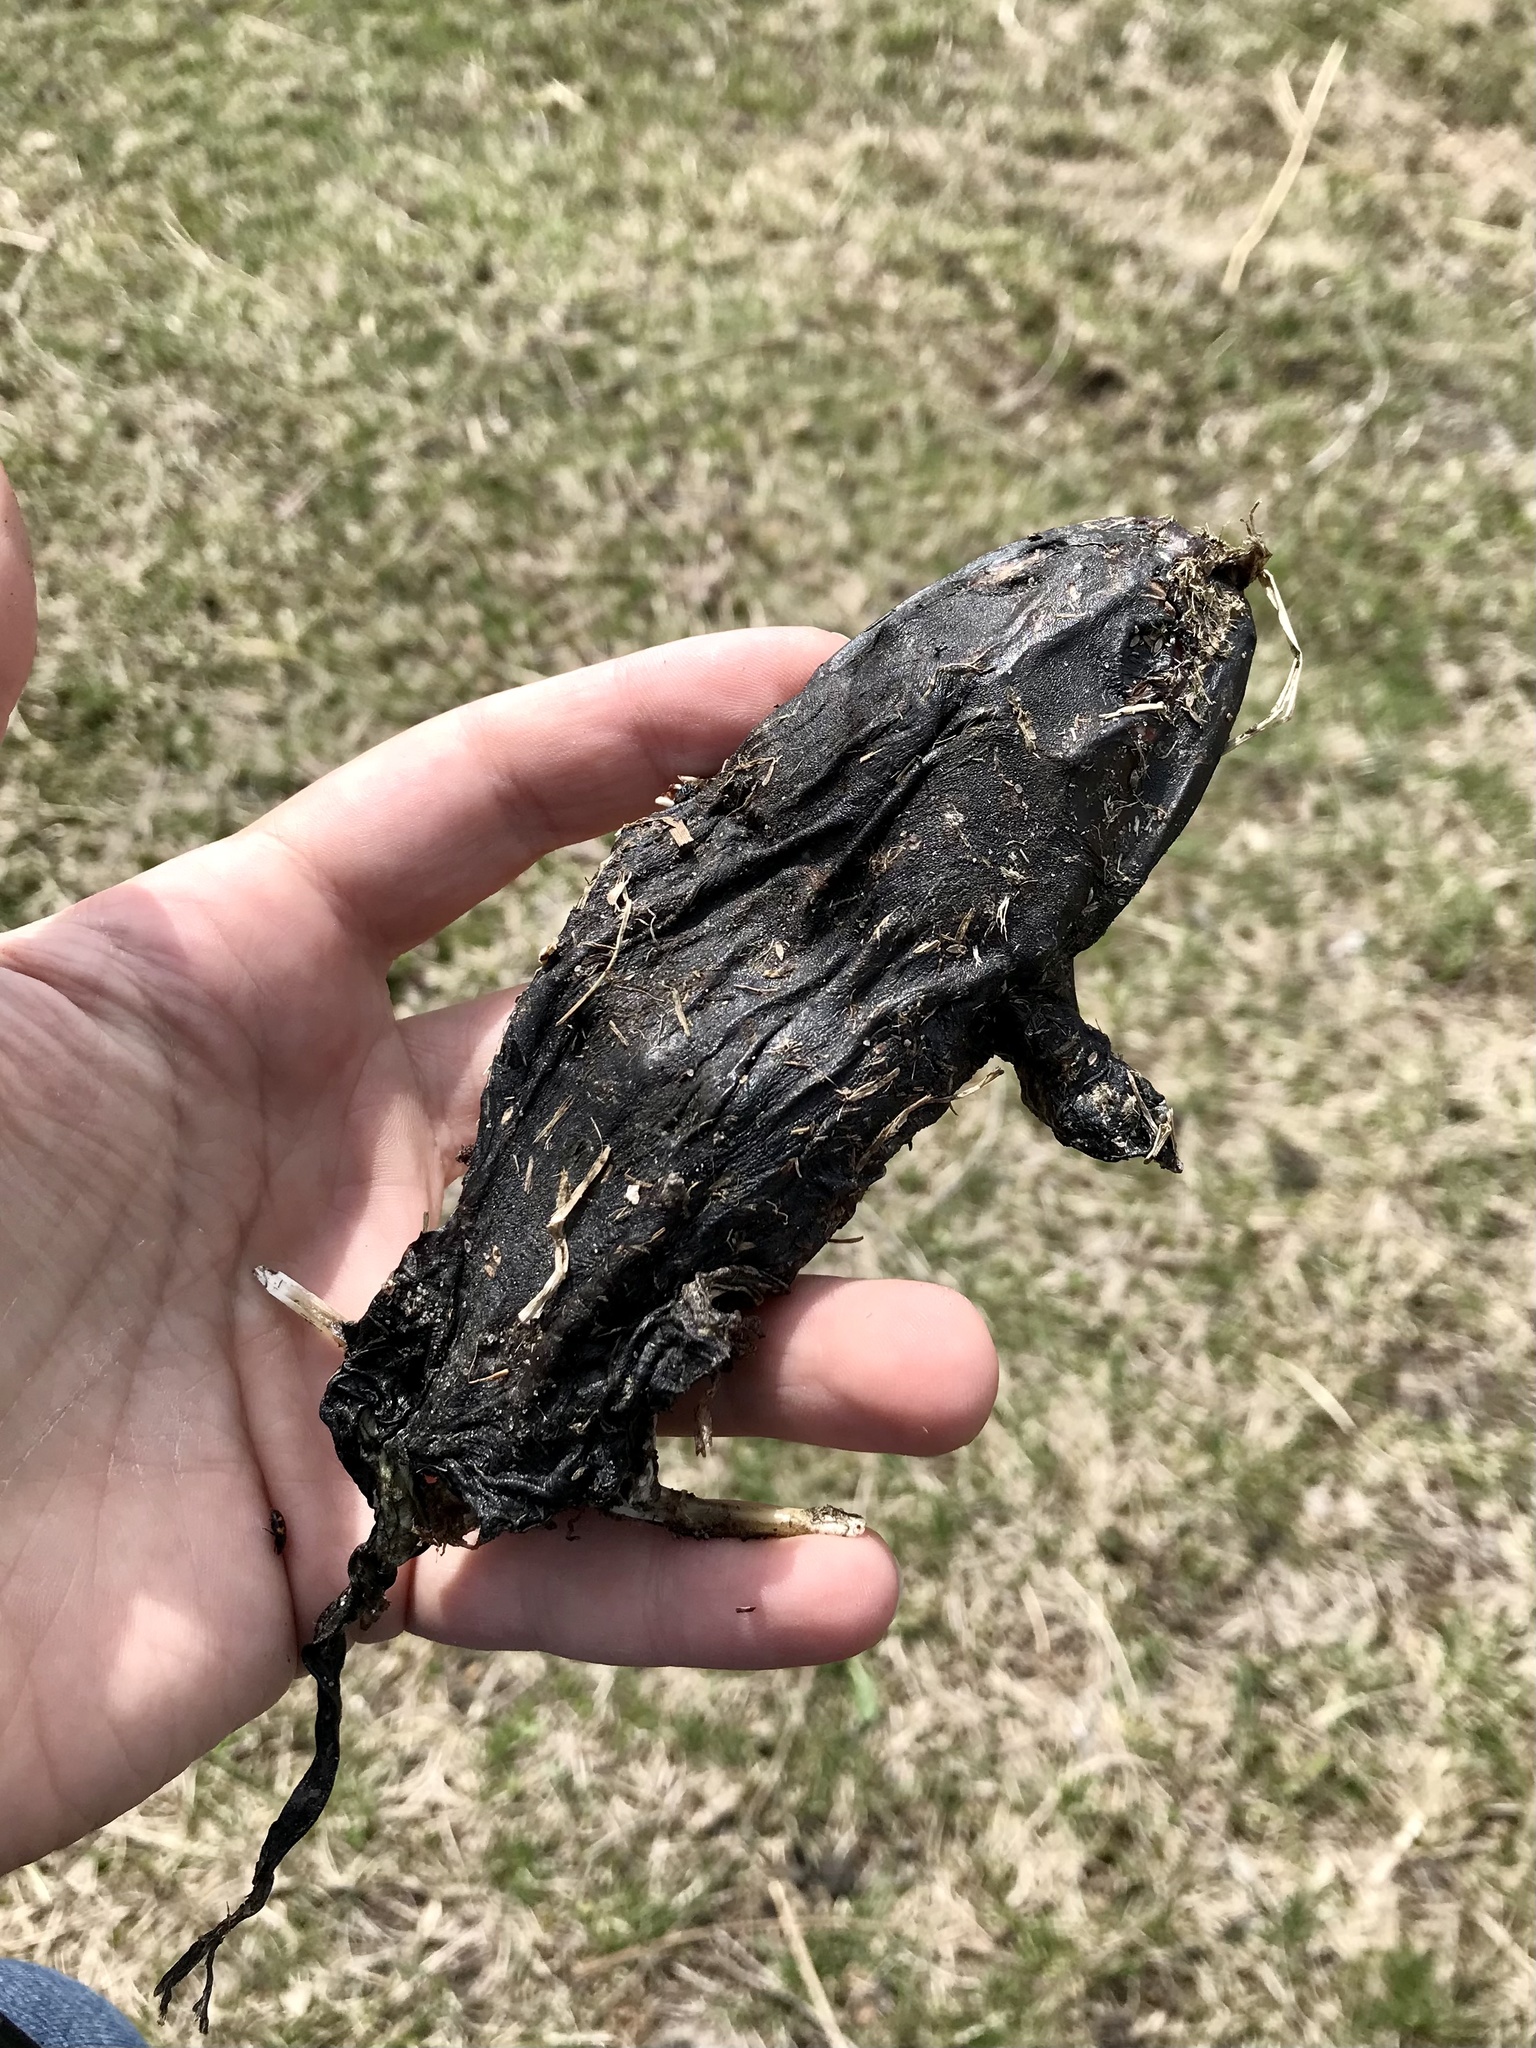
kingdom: Animalia
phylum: Chordata
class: Amphibia
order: Anura
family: Ranidae
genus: Lithobates
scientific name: Lithobates catesbeianus
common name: American bullfrog
